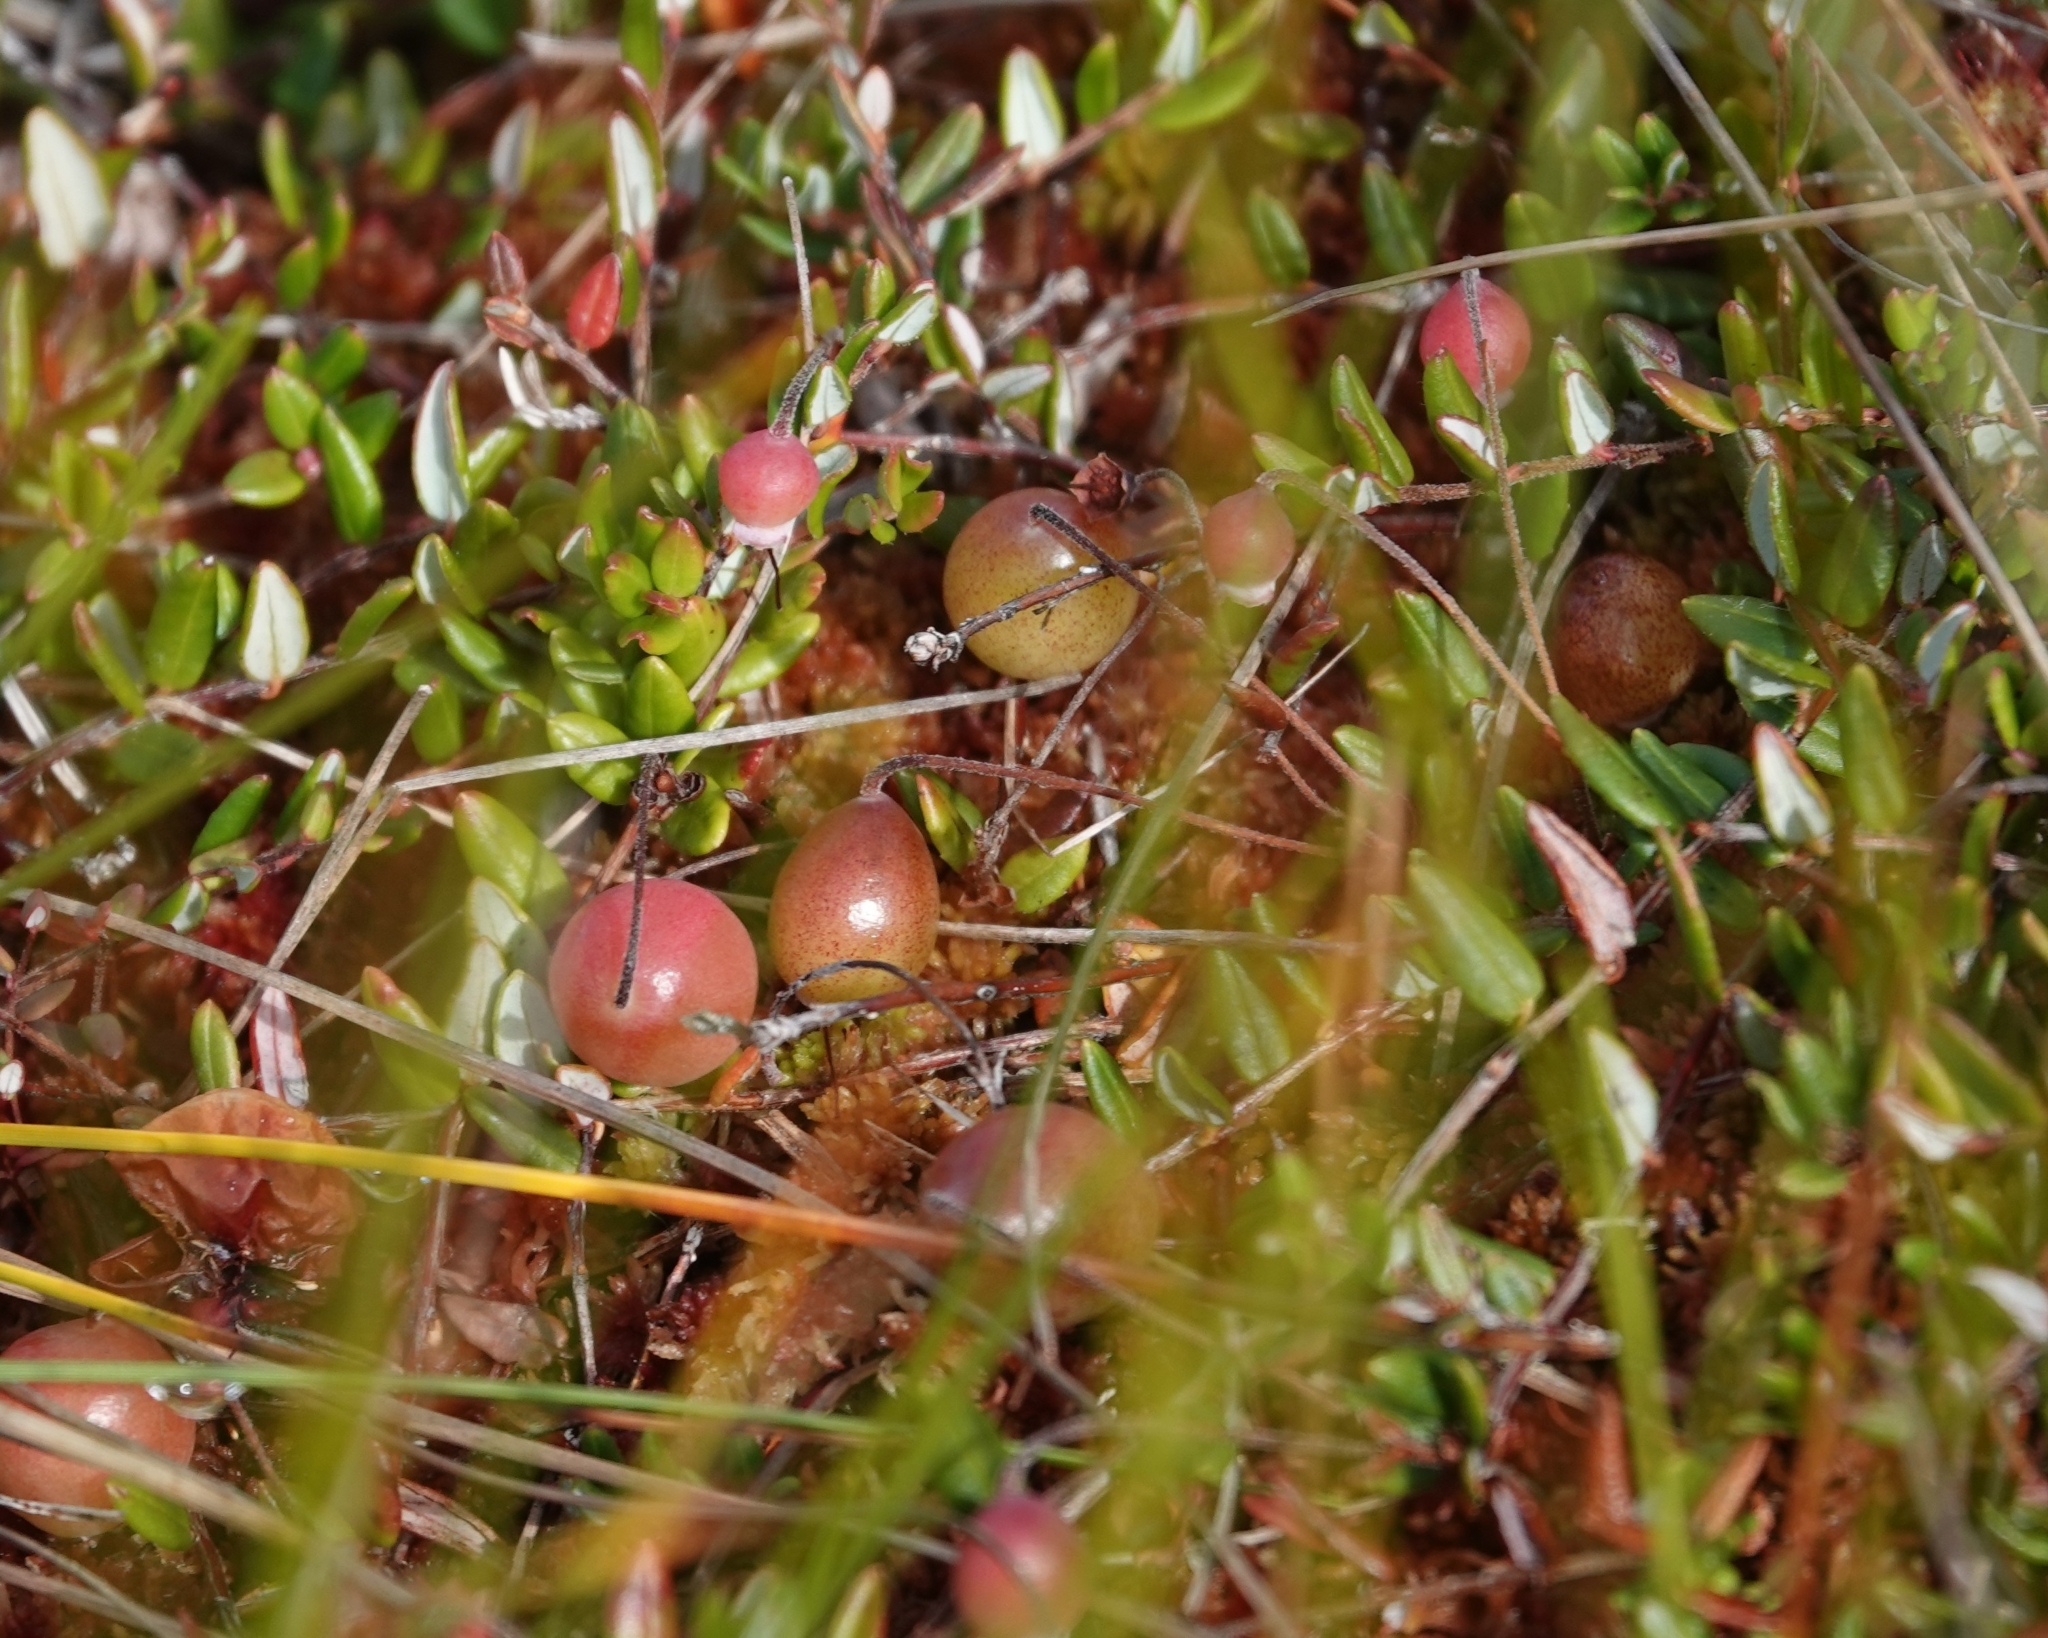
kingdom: Plantae
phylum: Tracheophyta
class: Magnoliopsida
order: Ericales
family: Ericaceae
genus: Vaccinium
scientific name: Vaccinium oxycoccos
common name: Cranberry
